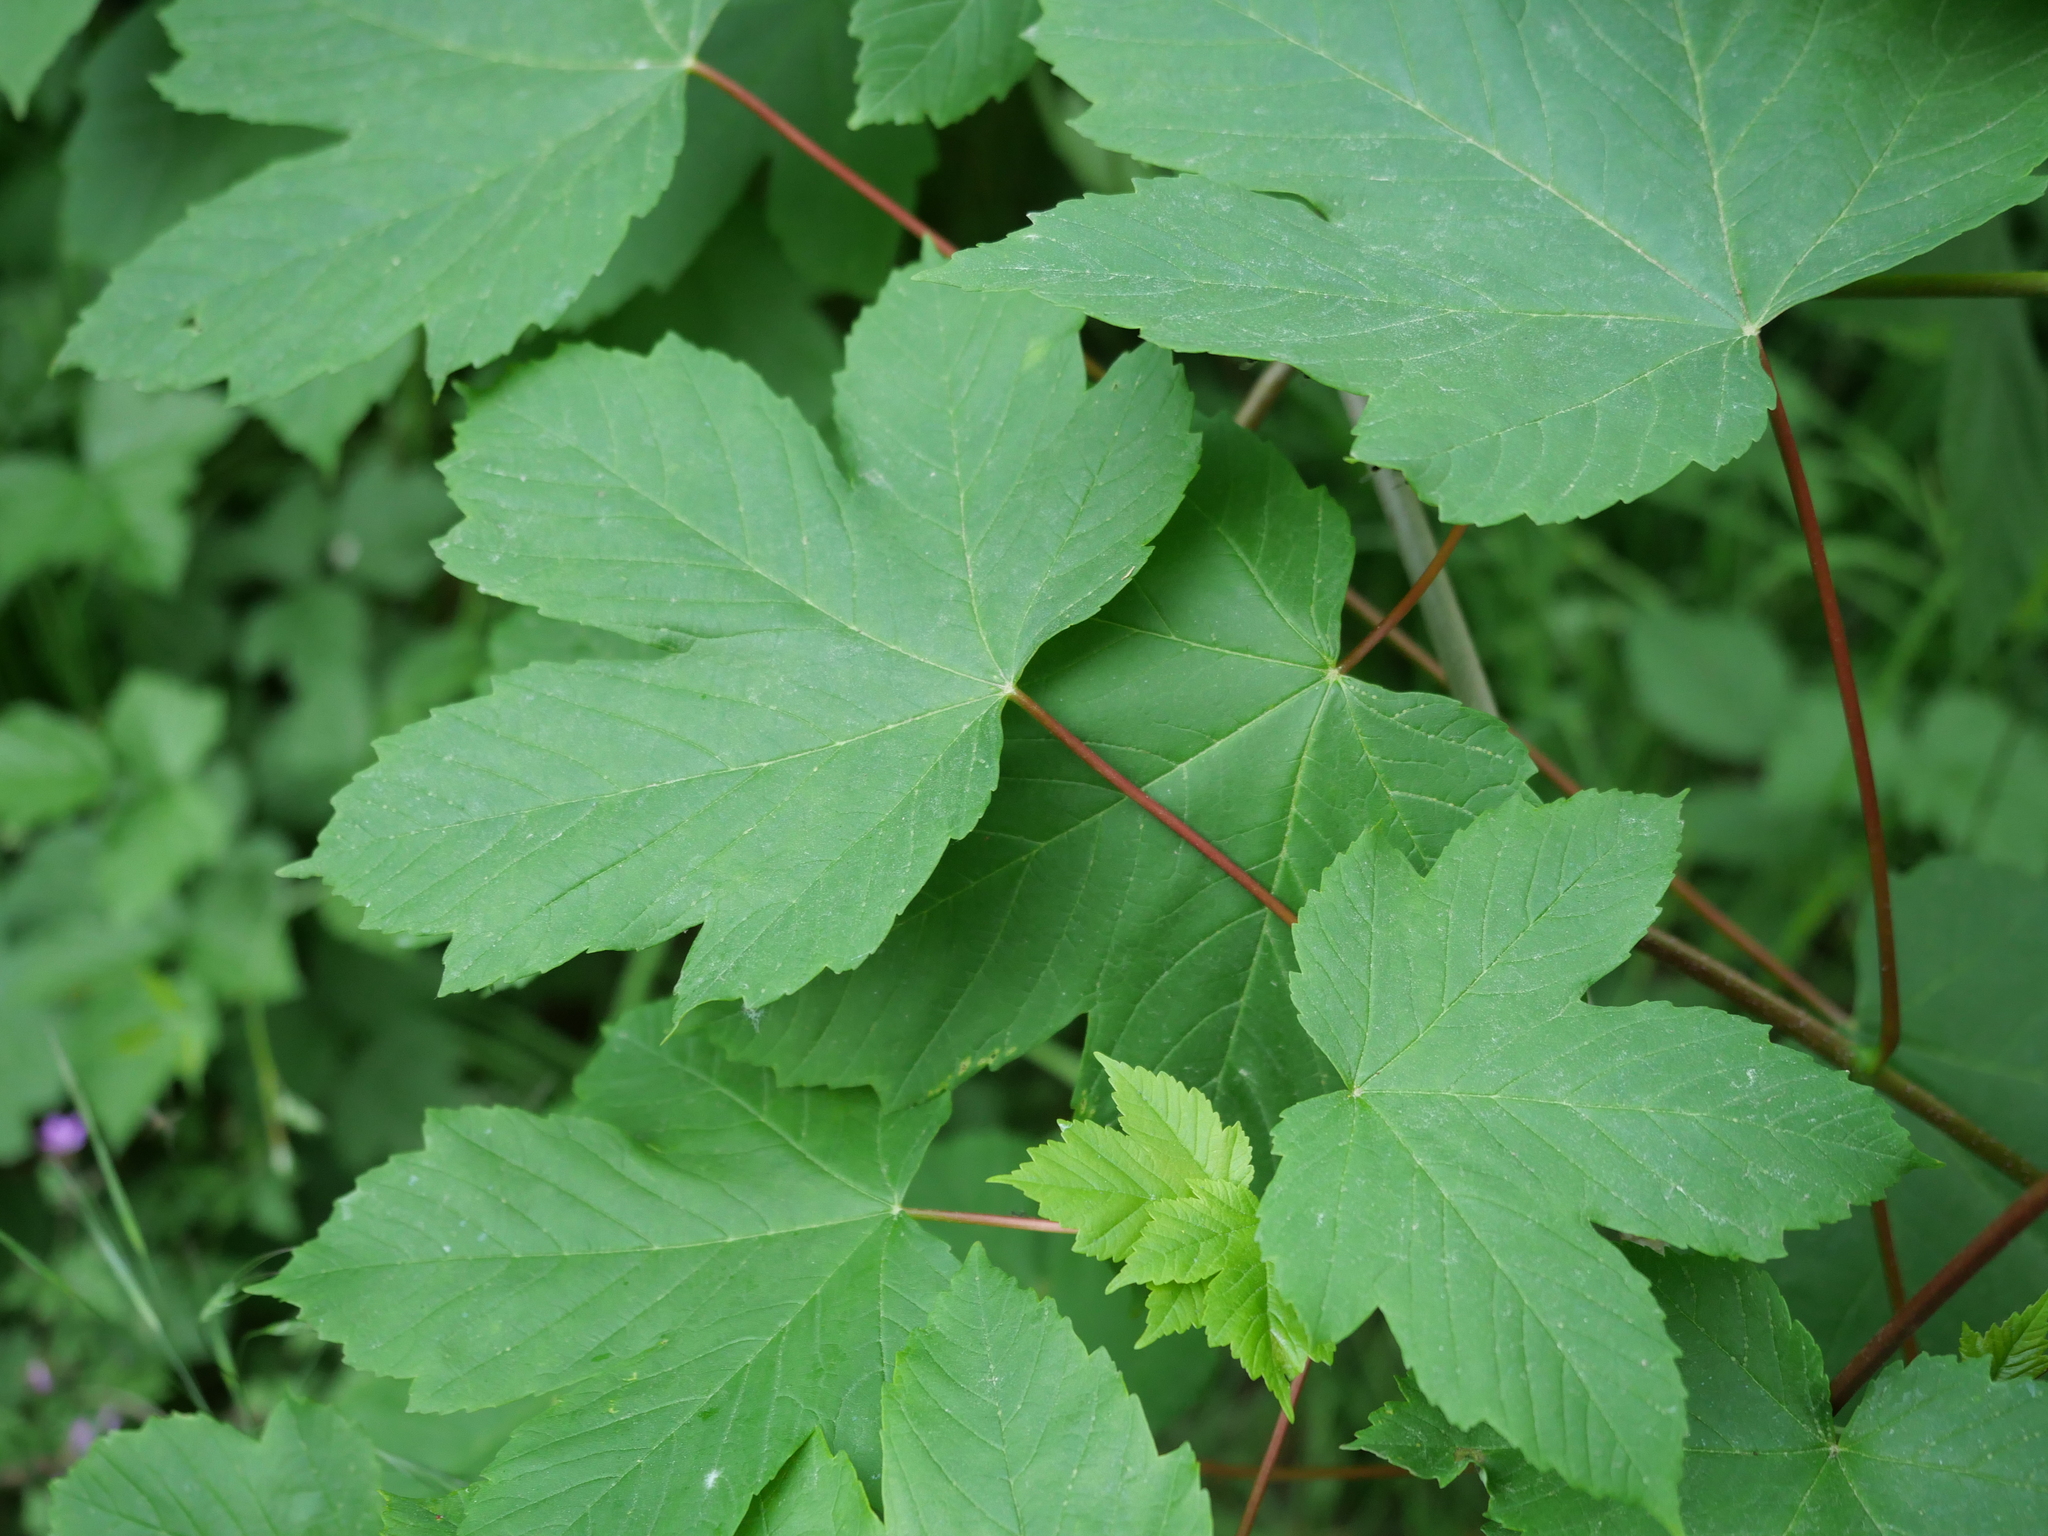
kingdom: Plantae
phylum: Tracheophyta
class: Magnoliopsida
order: Sapindales
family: Sapindaceae
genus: Acer
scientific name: Acer pseudoplatanus
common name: Sycamore
